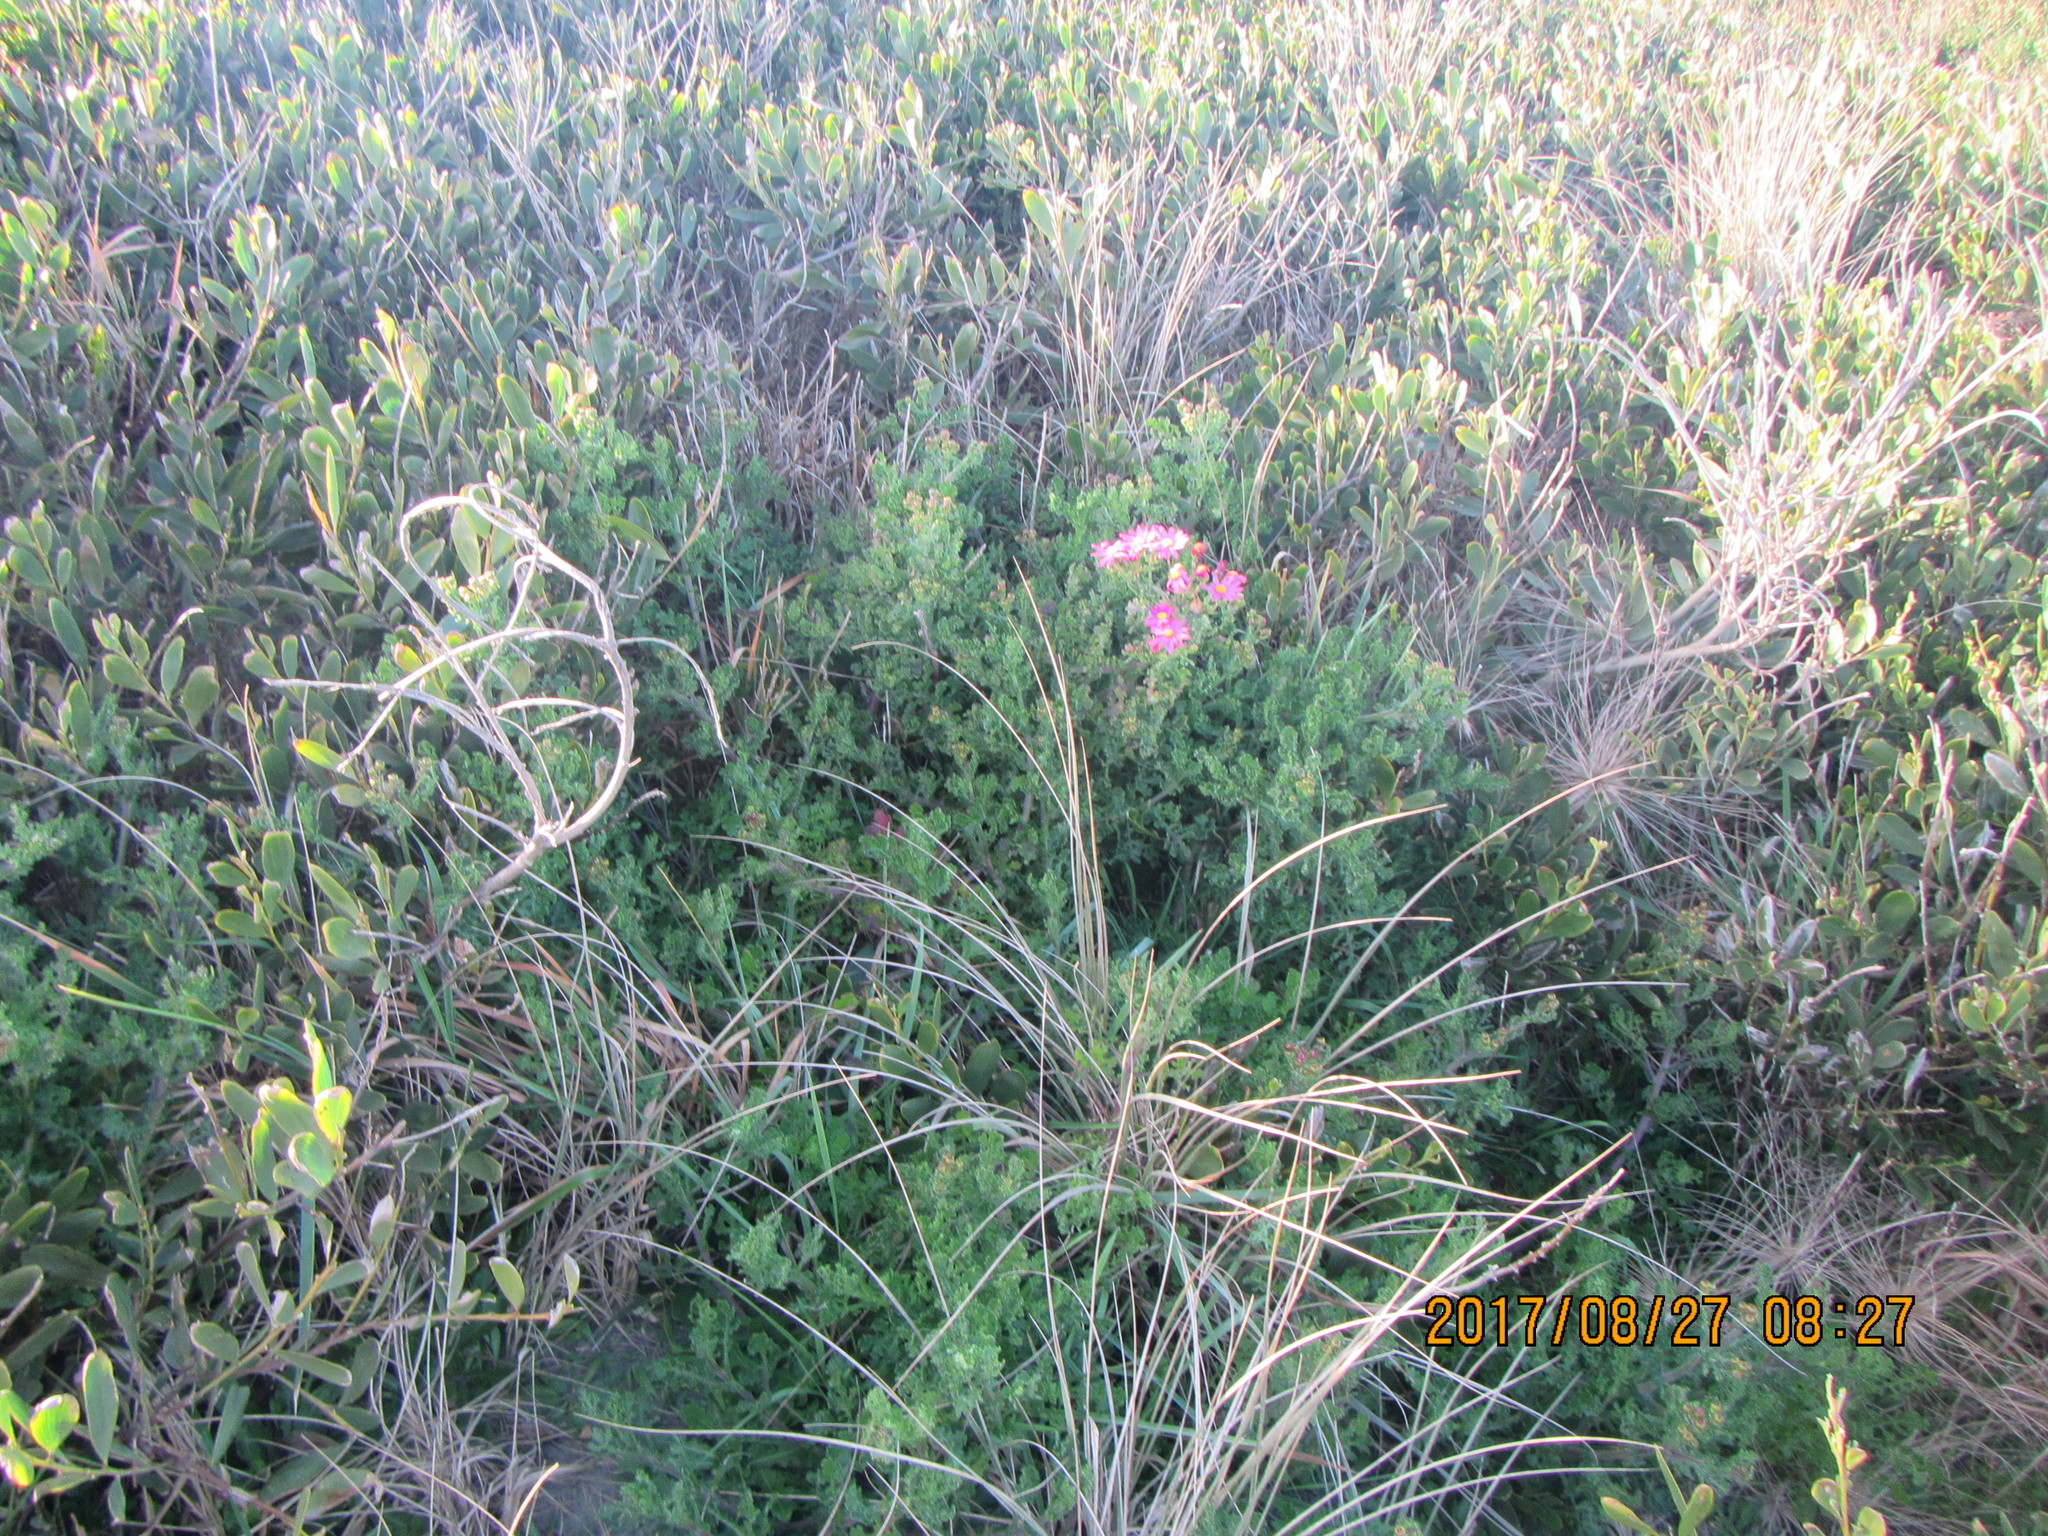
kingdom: Plantae
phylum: Tracheophyta
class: Magnoliopsida
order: Asterales
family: Asteraceae
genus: Senecio
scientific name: Senecio elegans
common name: Purple groundsel
